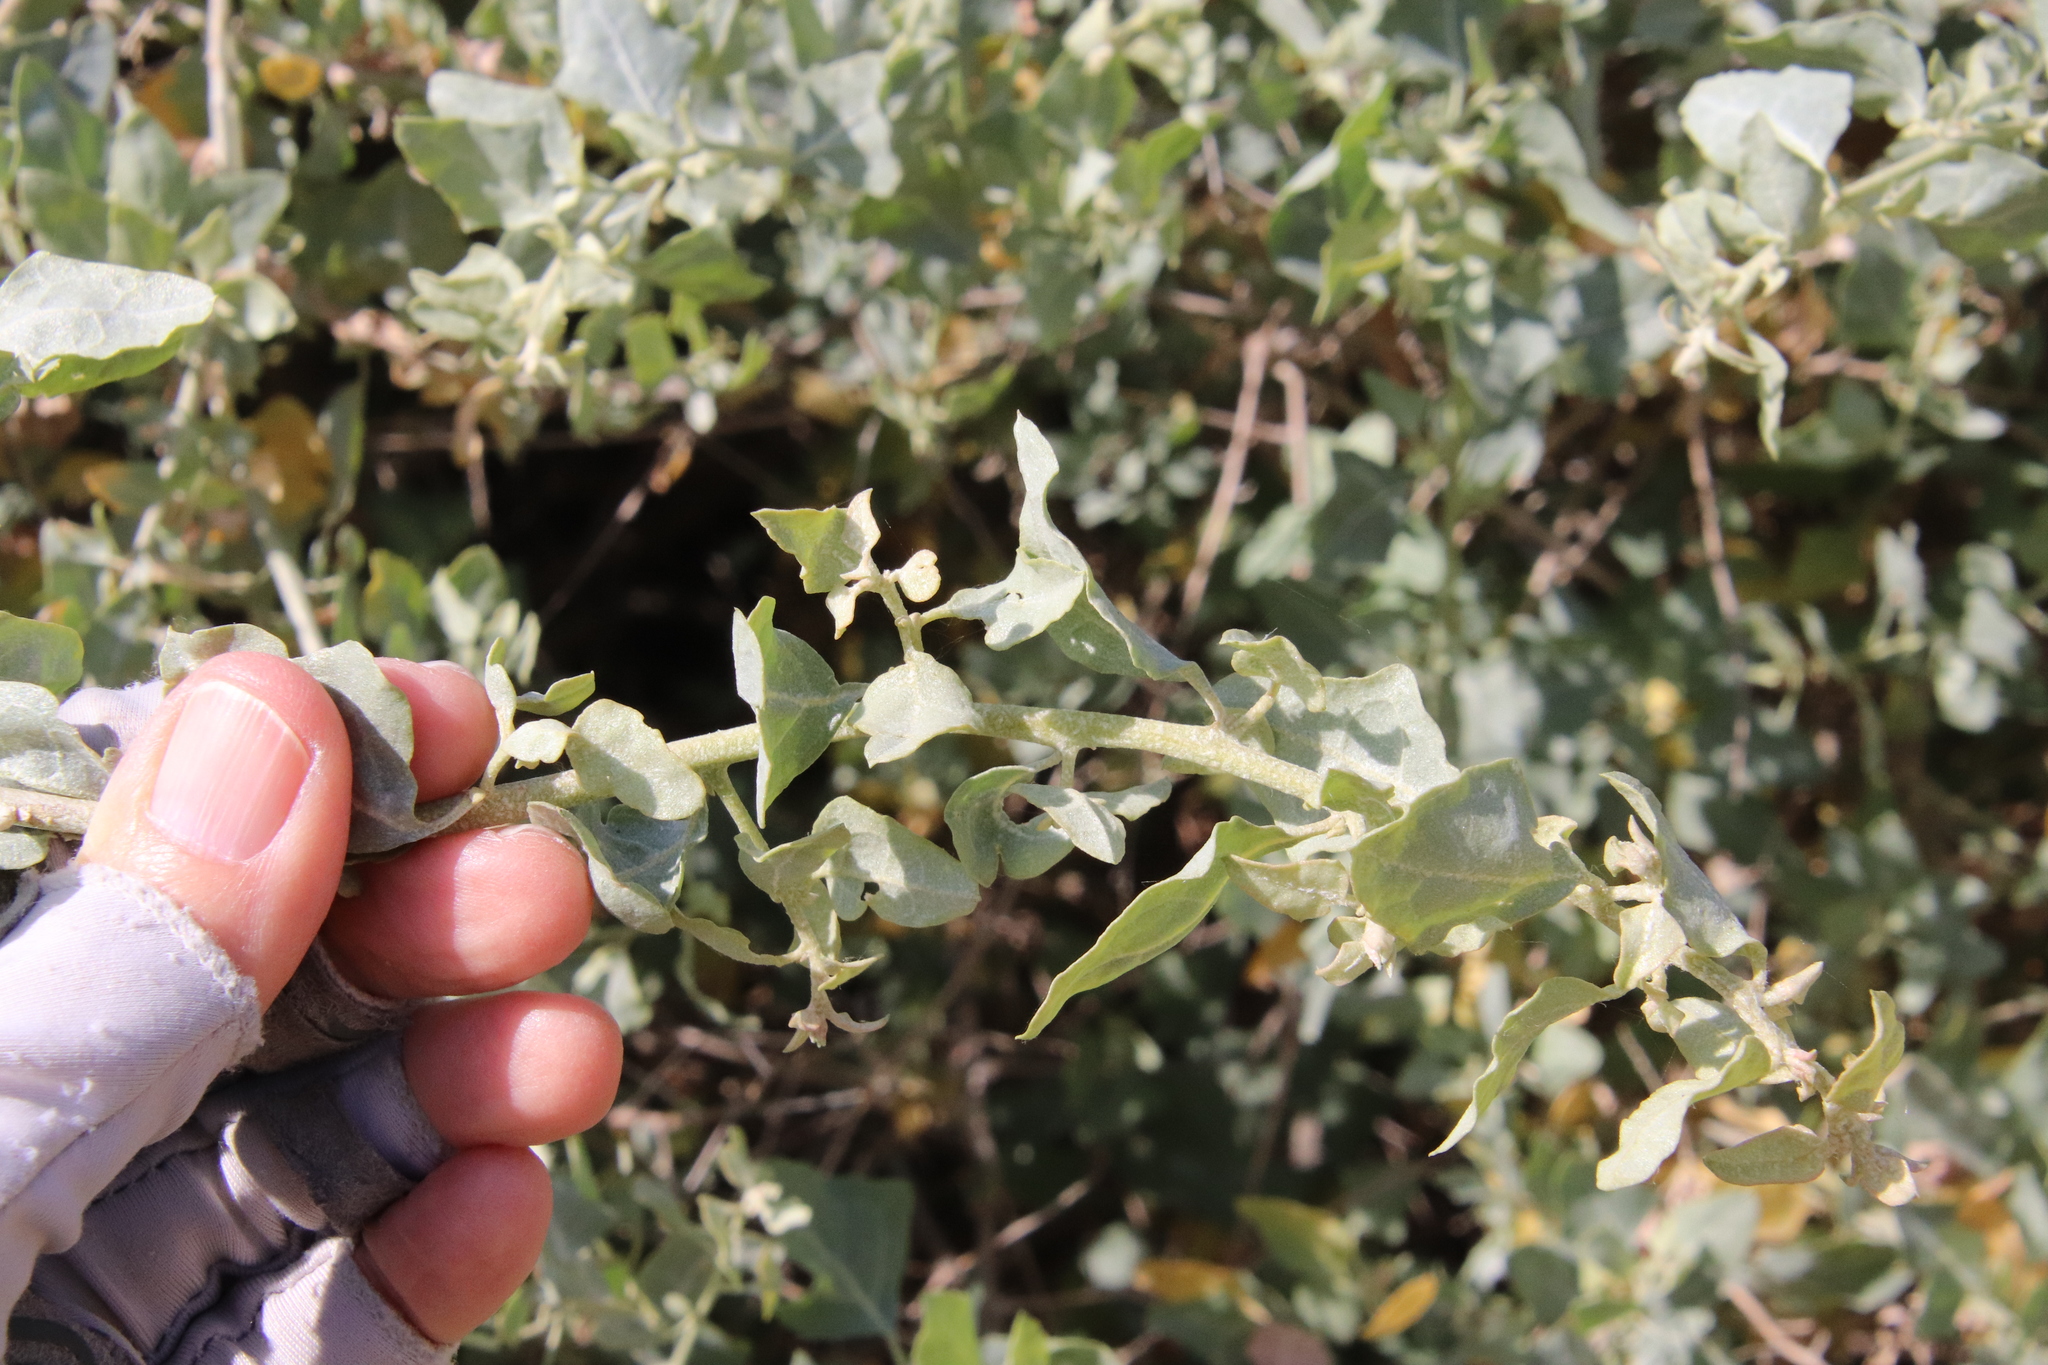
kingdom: Plantae
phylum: Tracheophyta
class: Magnoliopsida
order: Caryophyllales
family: Amaranthaceae
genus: Atriplex
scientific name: Atriplex lentiformis
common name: Big saltbush
